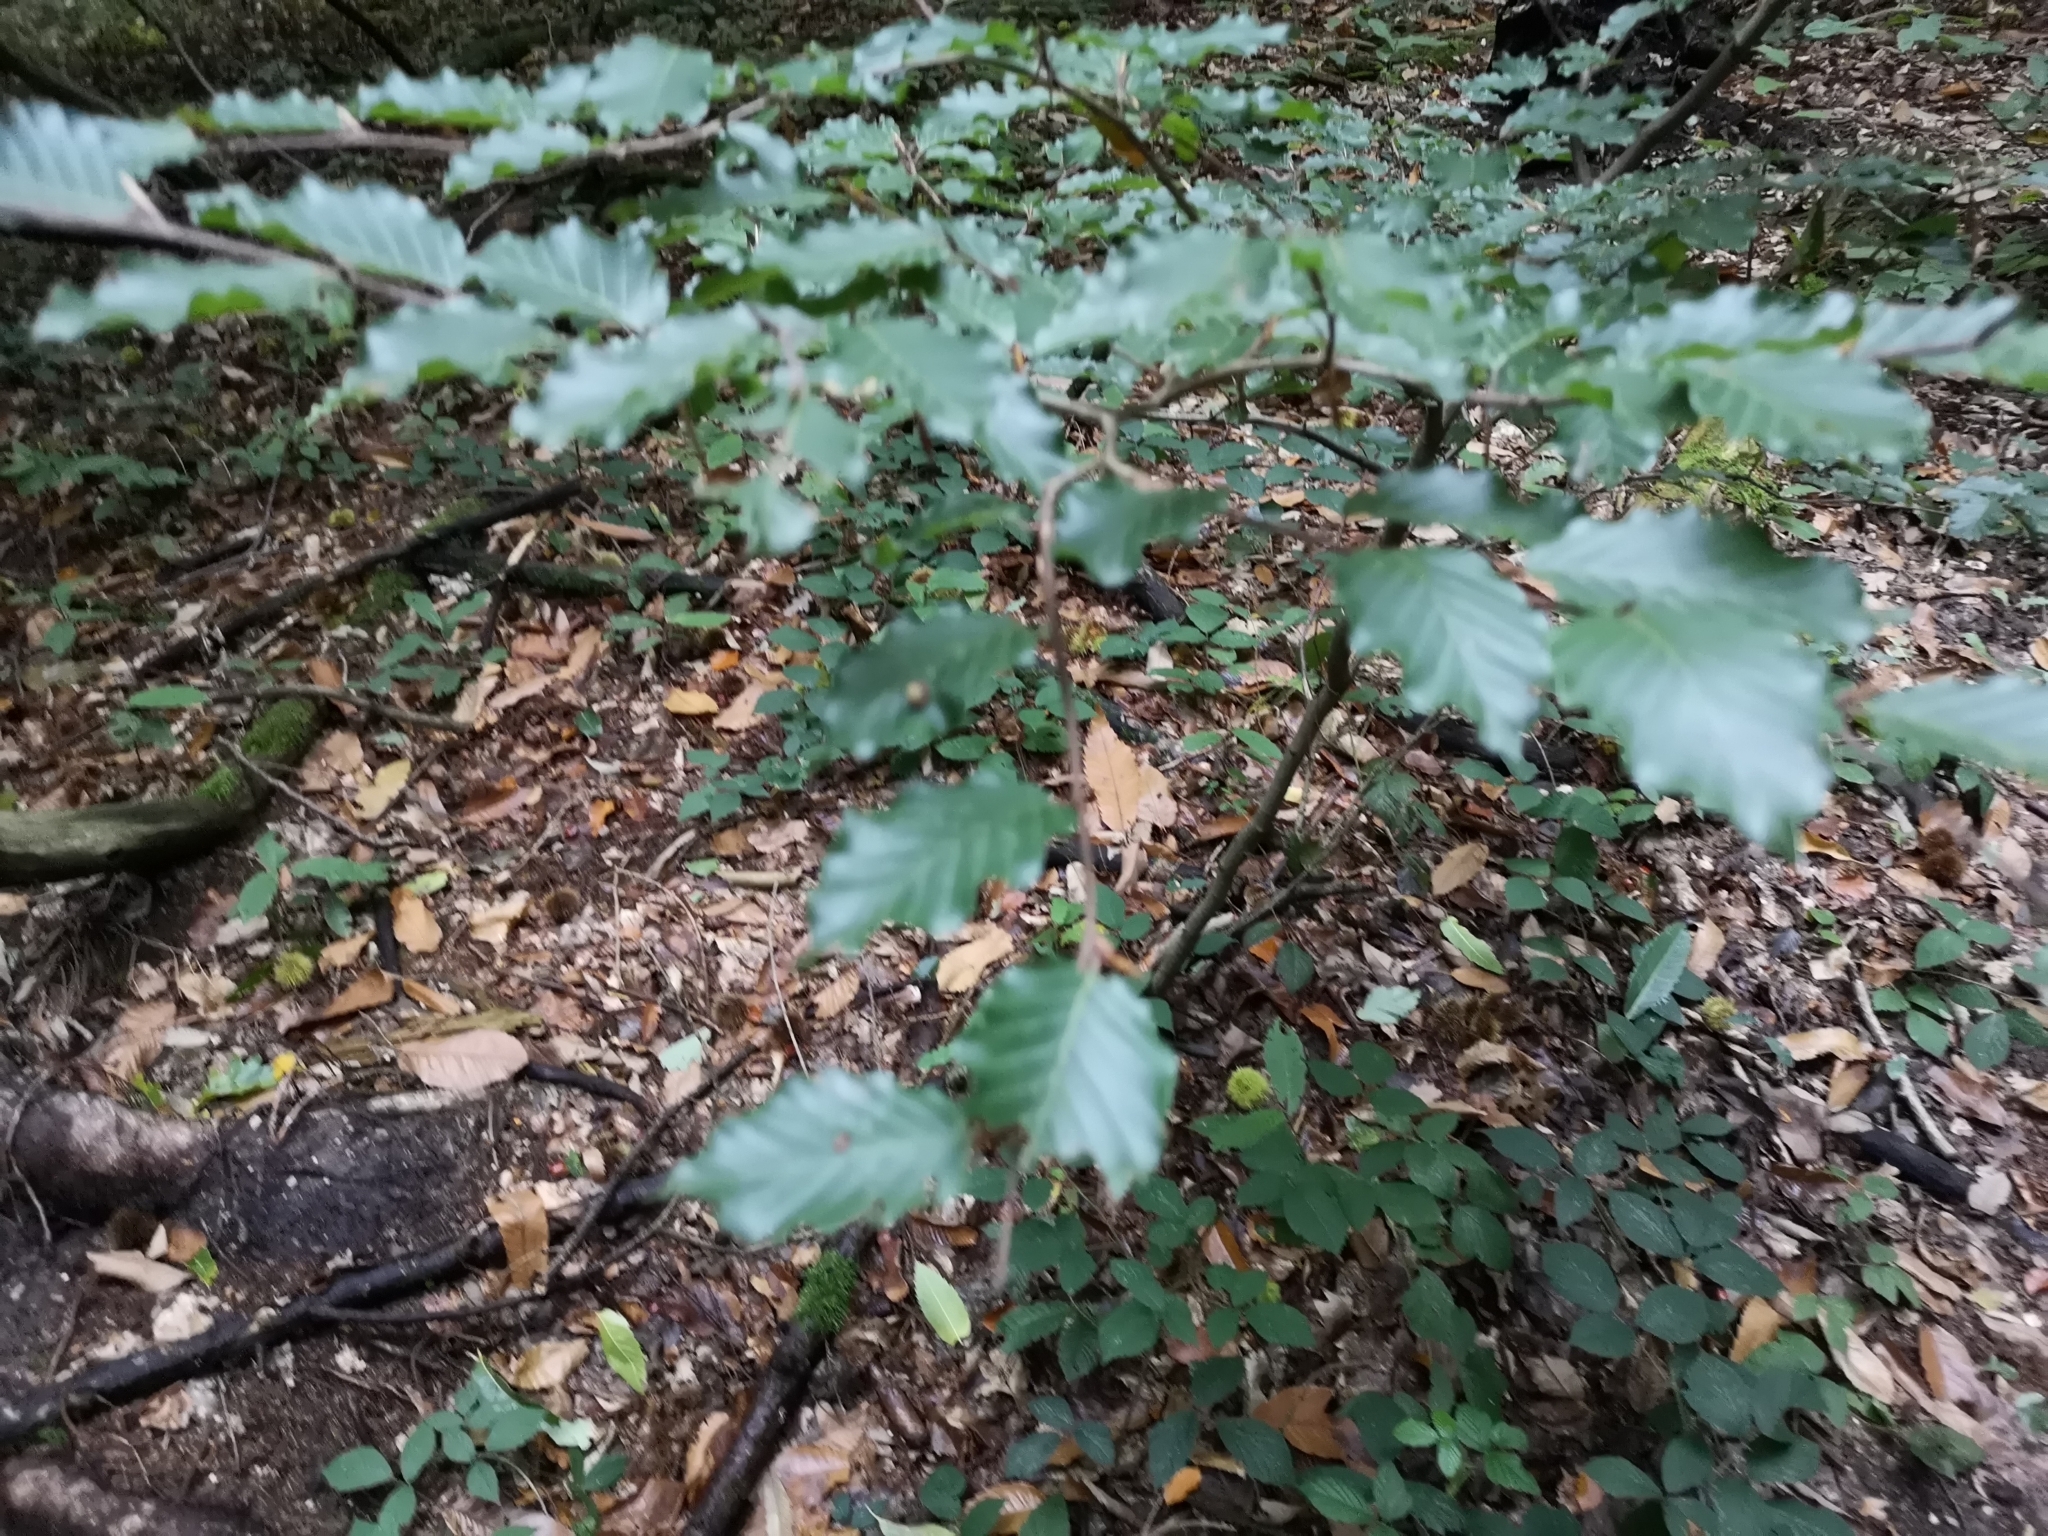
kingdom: Plantae
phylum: Tracheophyta
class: Magnoliopsida
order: Fagales
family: Fagaceae
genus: Fagus
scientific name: Fagus sylvatica
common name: Beech
